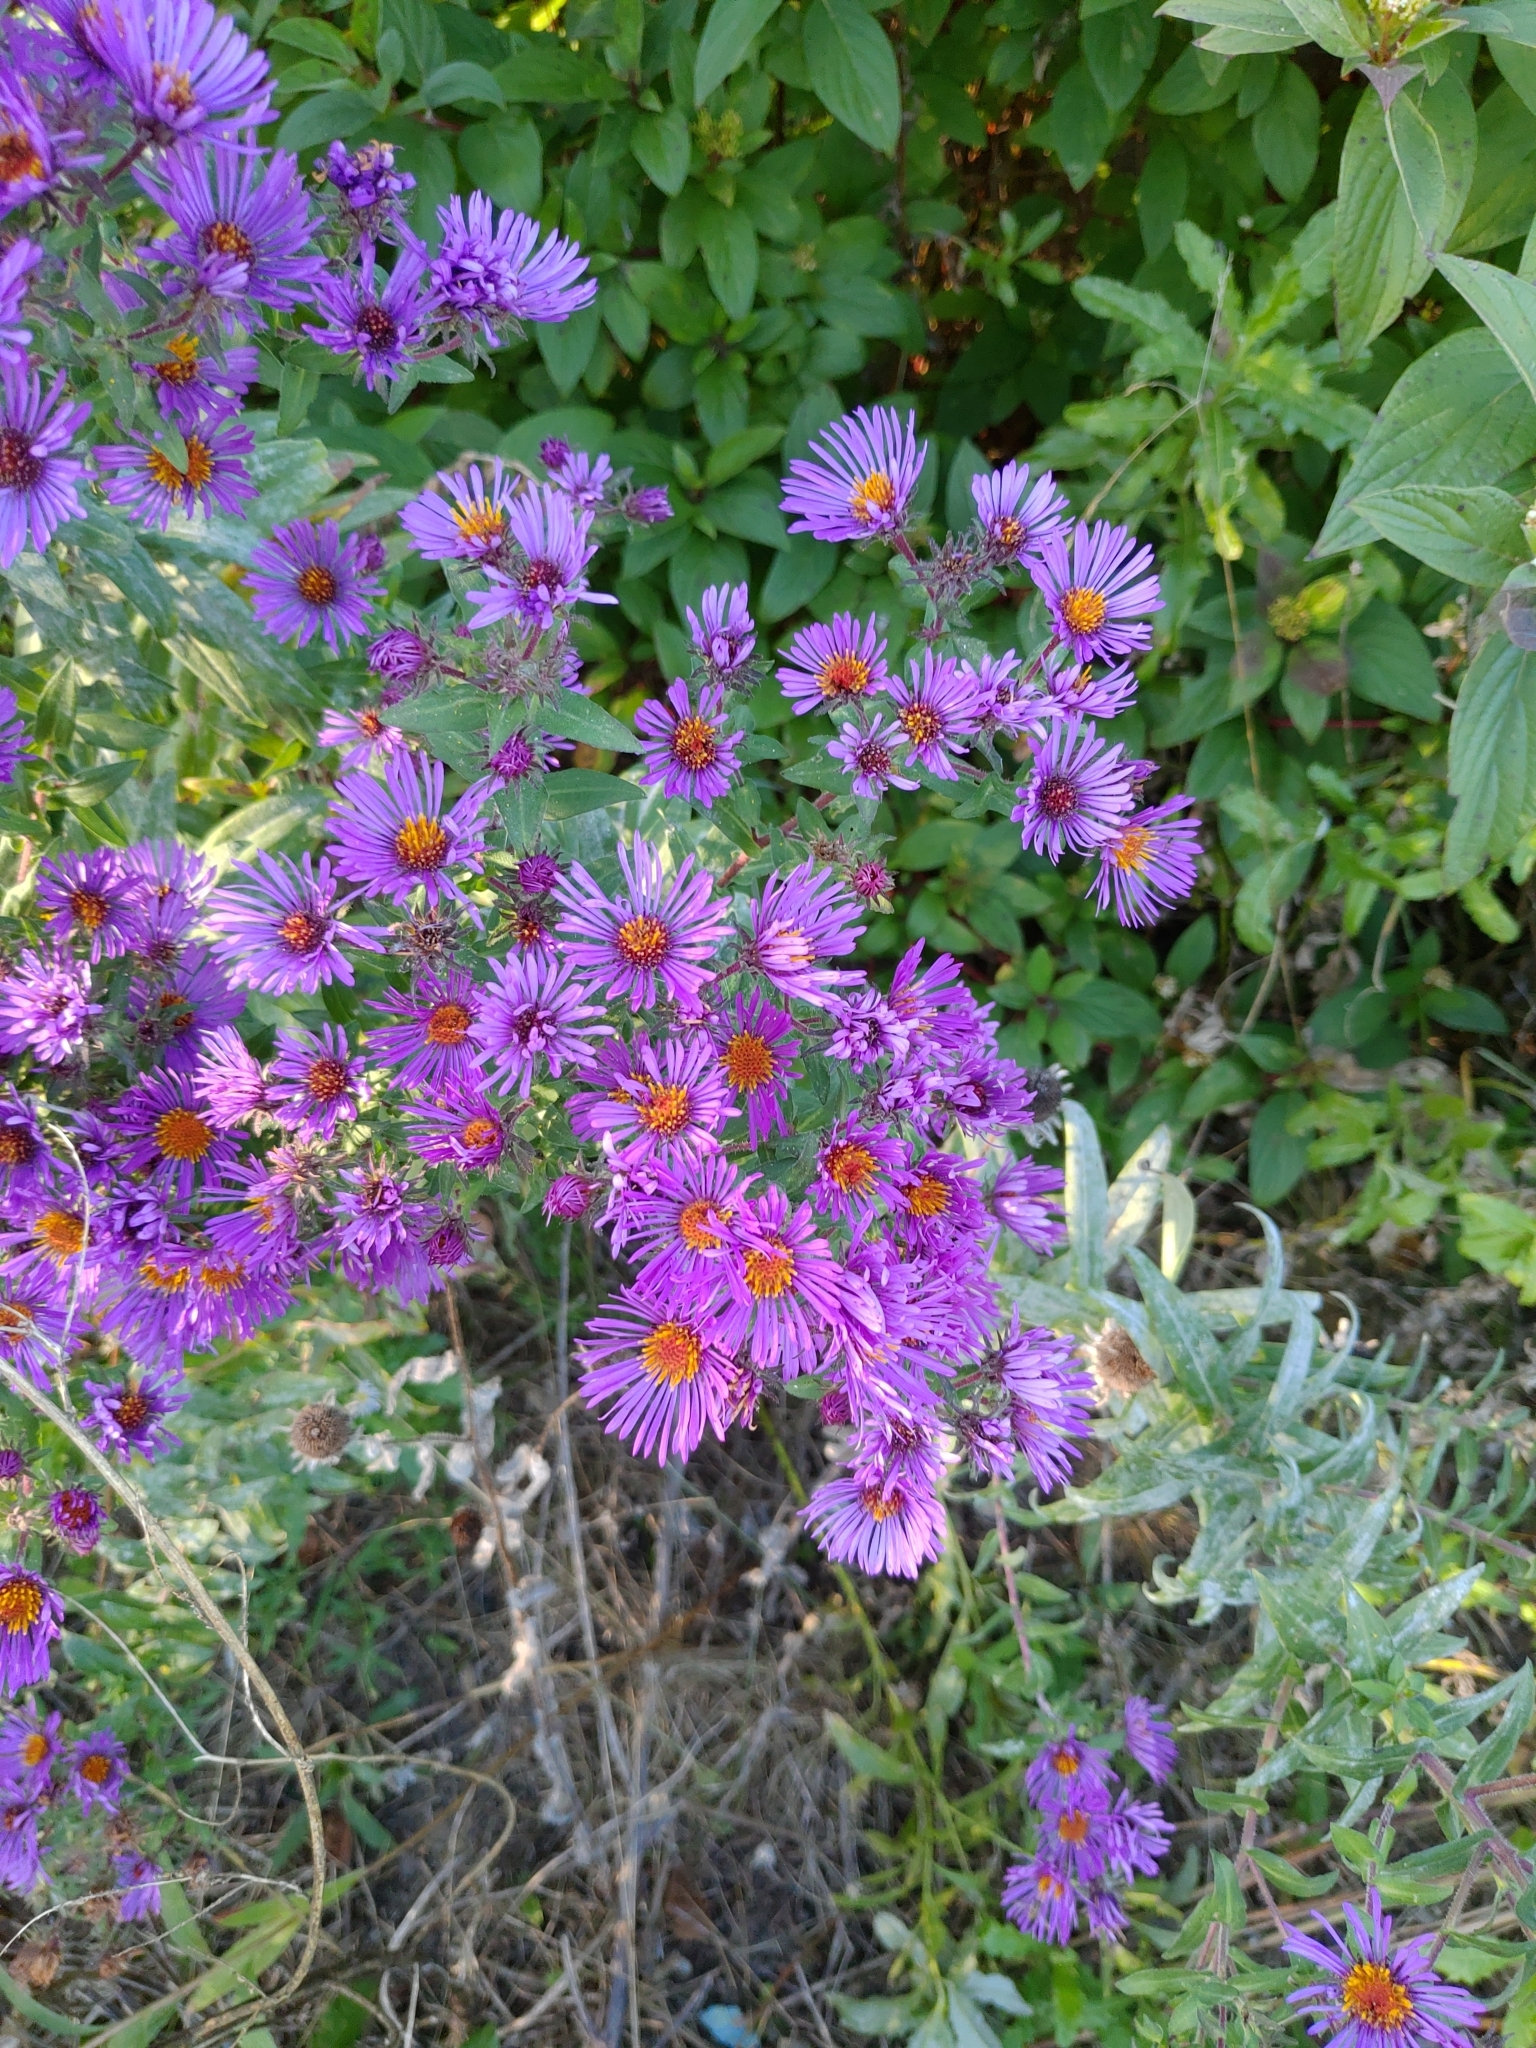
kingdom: Plantae
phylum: Tracheophyta
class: Magnoliopsida
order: Asterales
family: Asteraceae
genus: Symphyotrichum
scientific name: Symphyotrichum novae-angliae
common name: Michaelmas daisy
